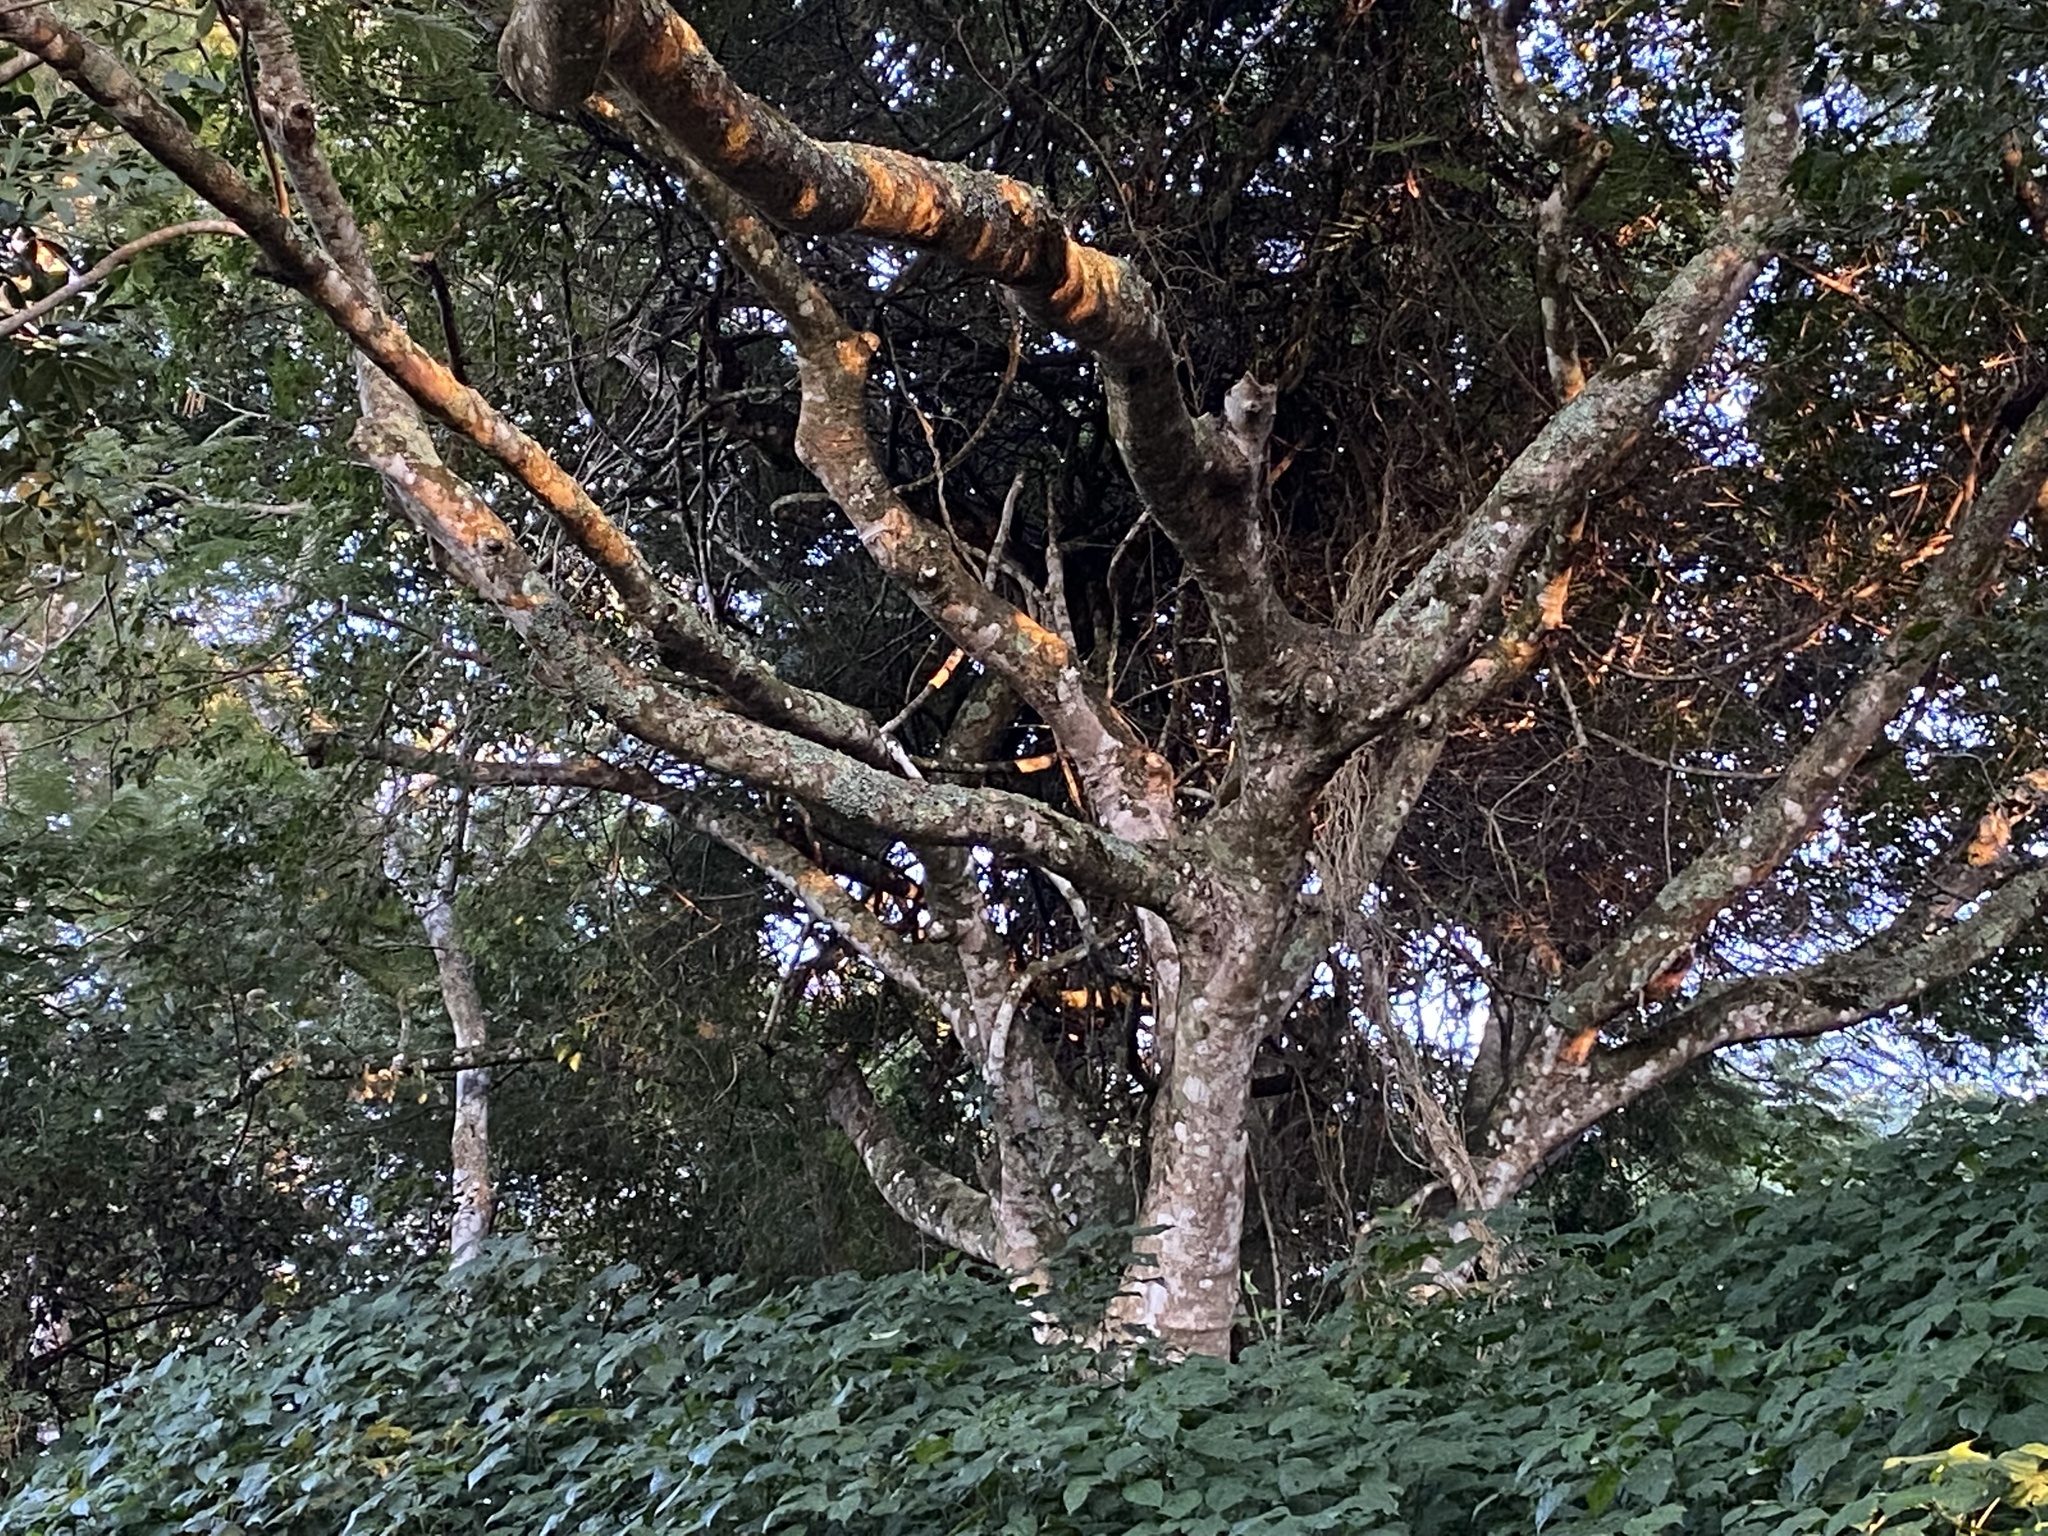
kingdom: Plantae
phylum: Tracheophyta
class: Magnoliopsida
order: Fabales
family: Fabaceae
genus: Delonix
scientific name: Delonix regia
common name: Royal poinciana
